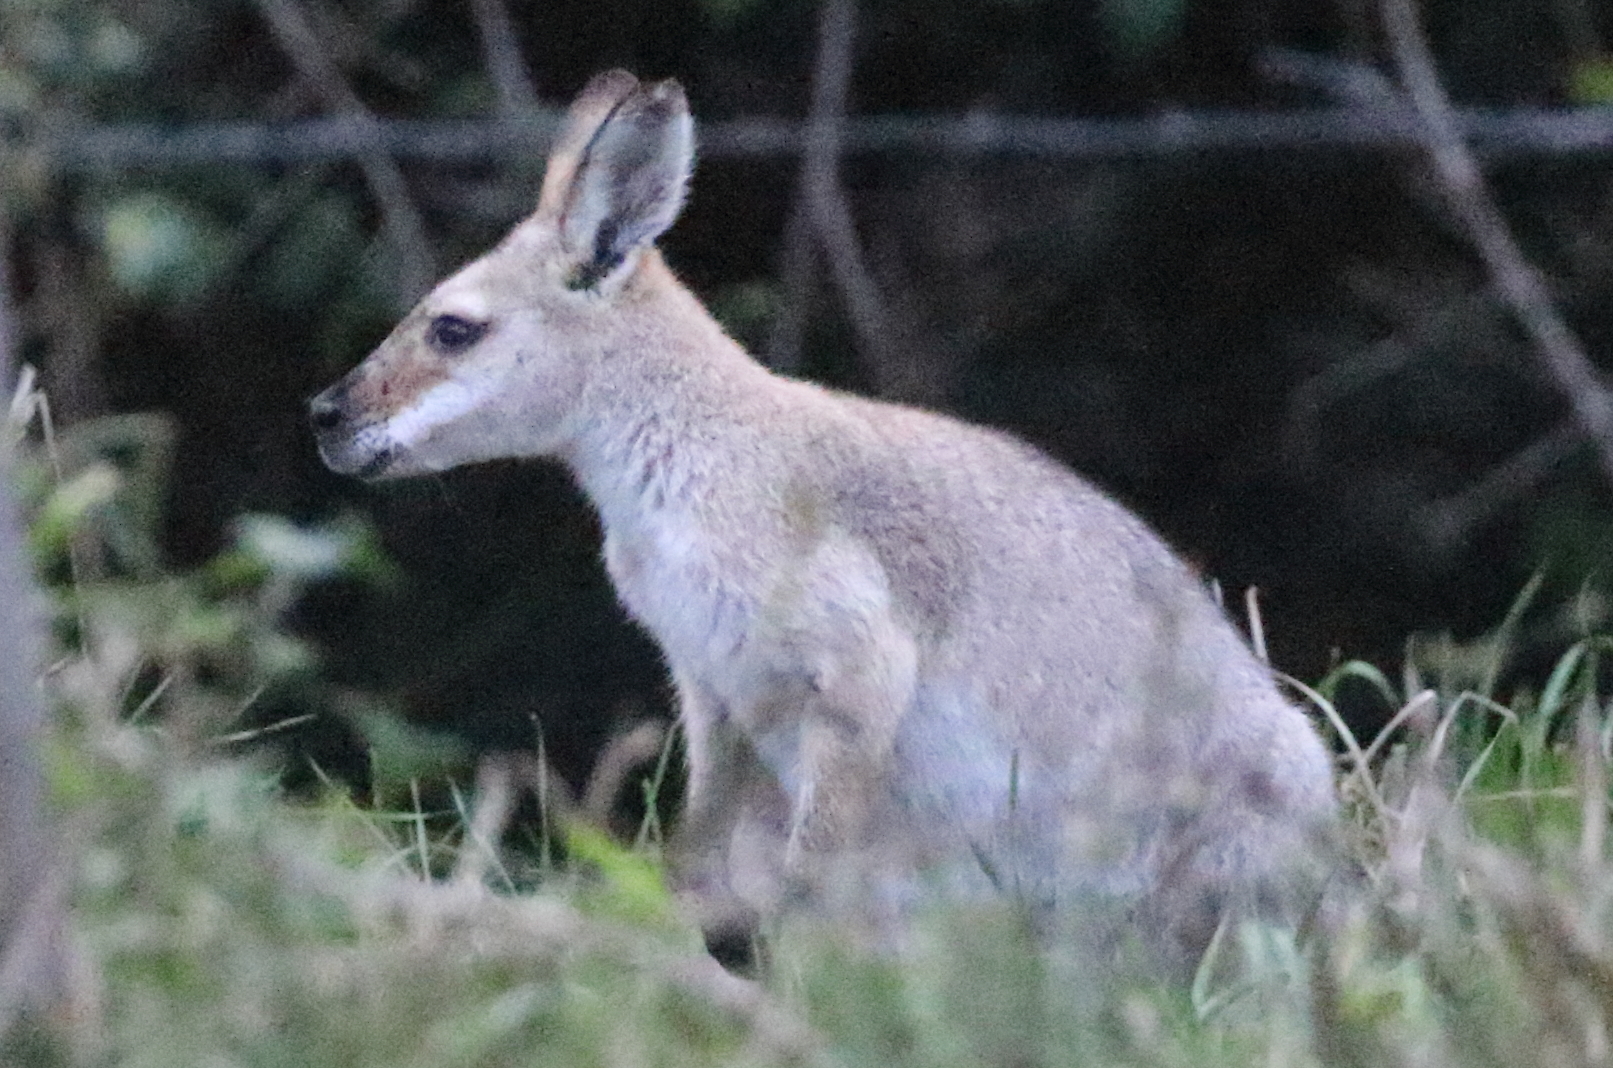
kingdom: Animalia
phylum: Chordata
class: Mammalia
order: Diprotodontia
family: Macropodidae
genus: Notamacropus
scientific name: Notamacropus rufogriseus
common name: Red-necked wallaby
